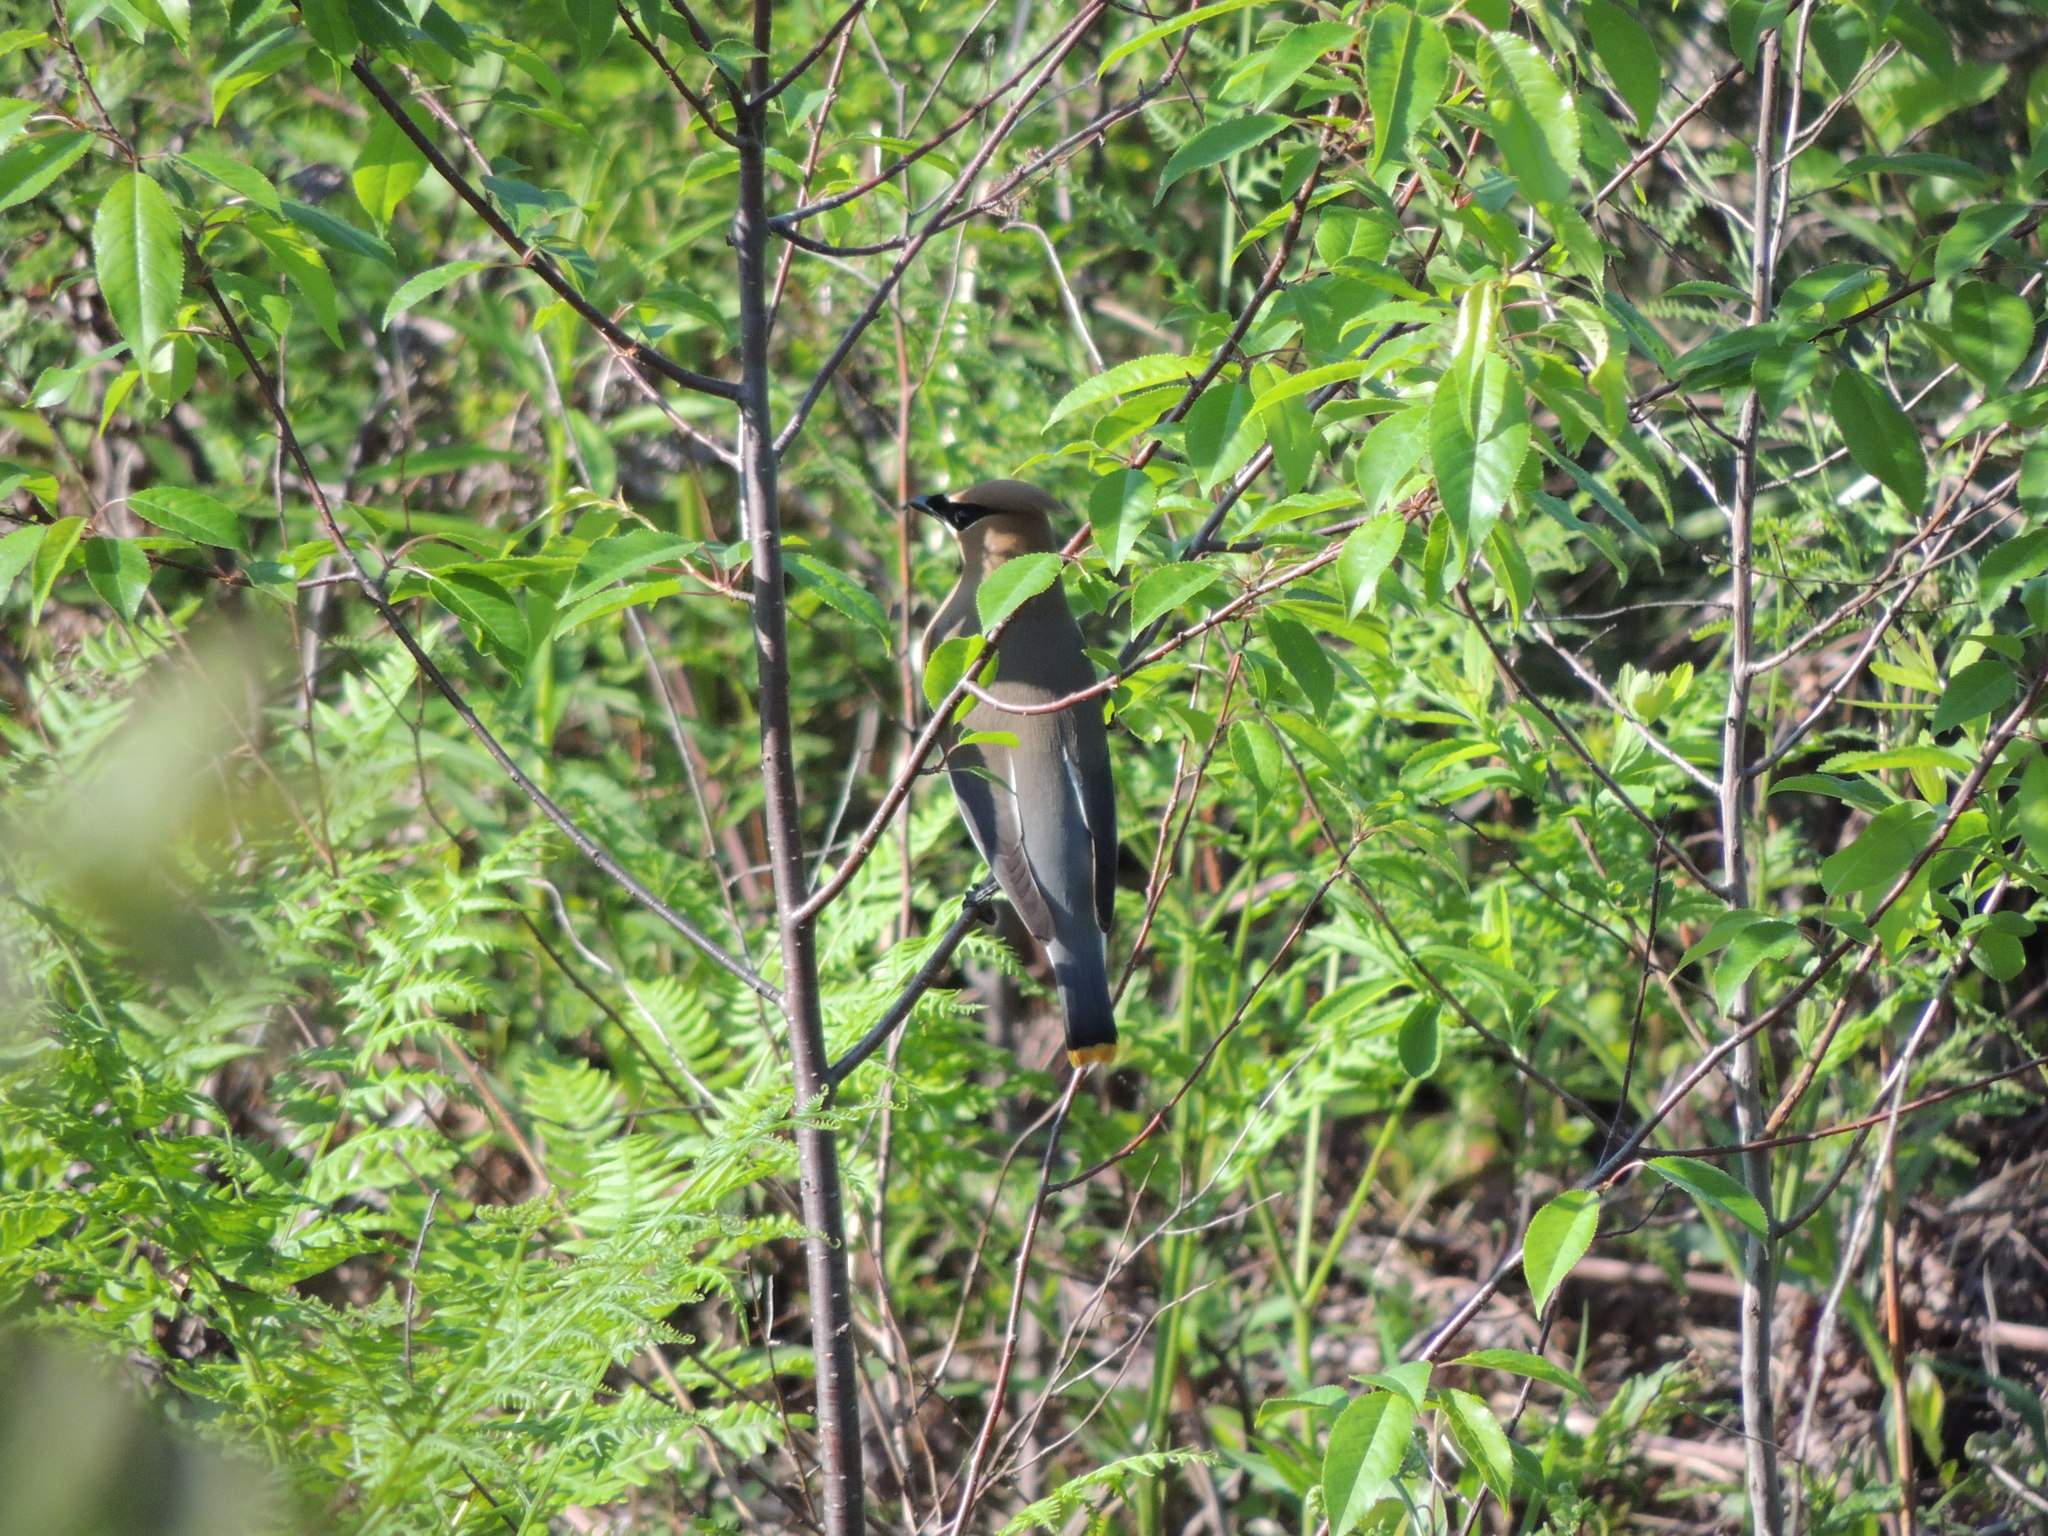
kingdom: Animalia
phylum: Chordata
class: Aves
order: Passeriformes
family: Bombycillidae
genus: Bombycilla
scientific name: Bombycilla cedrorum
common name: Cedar waxwing
